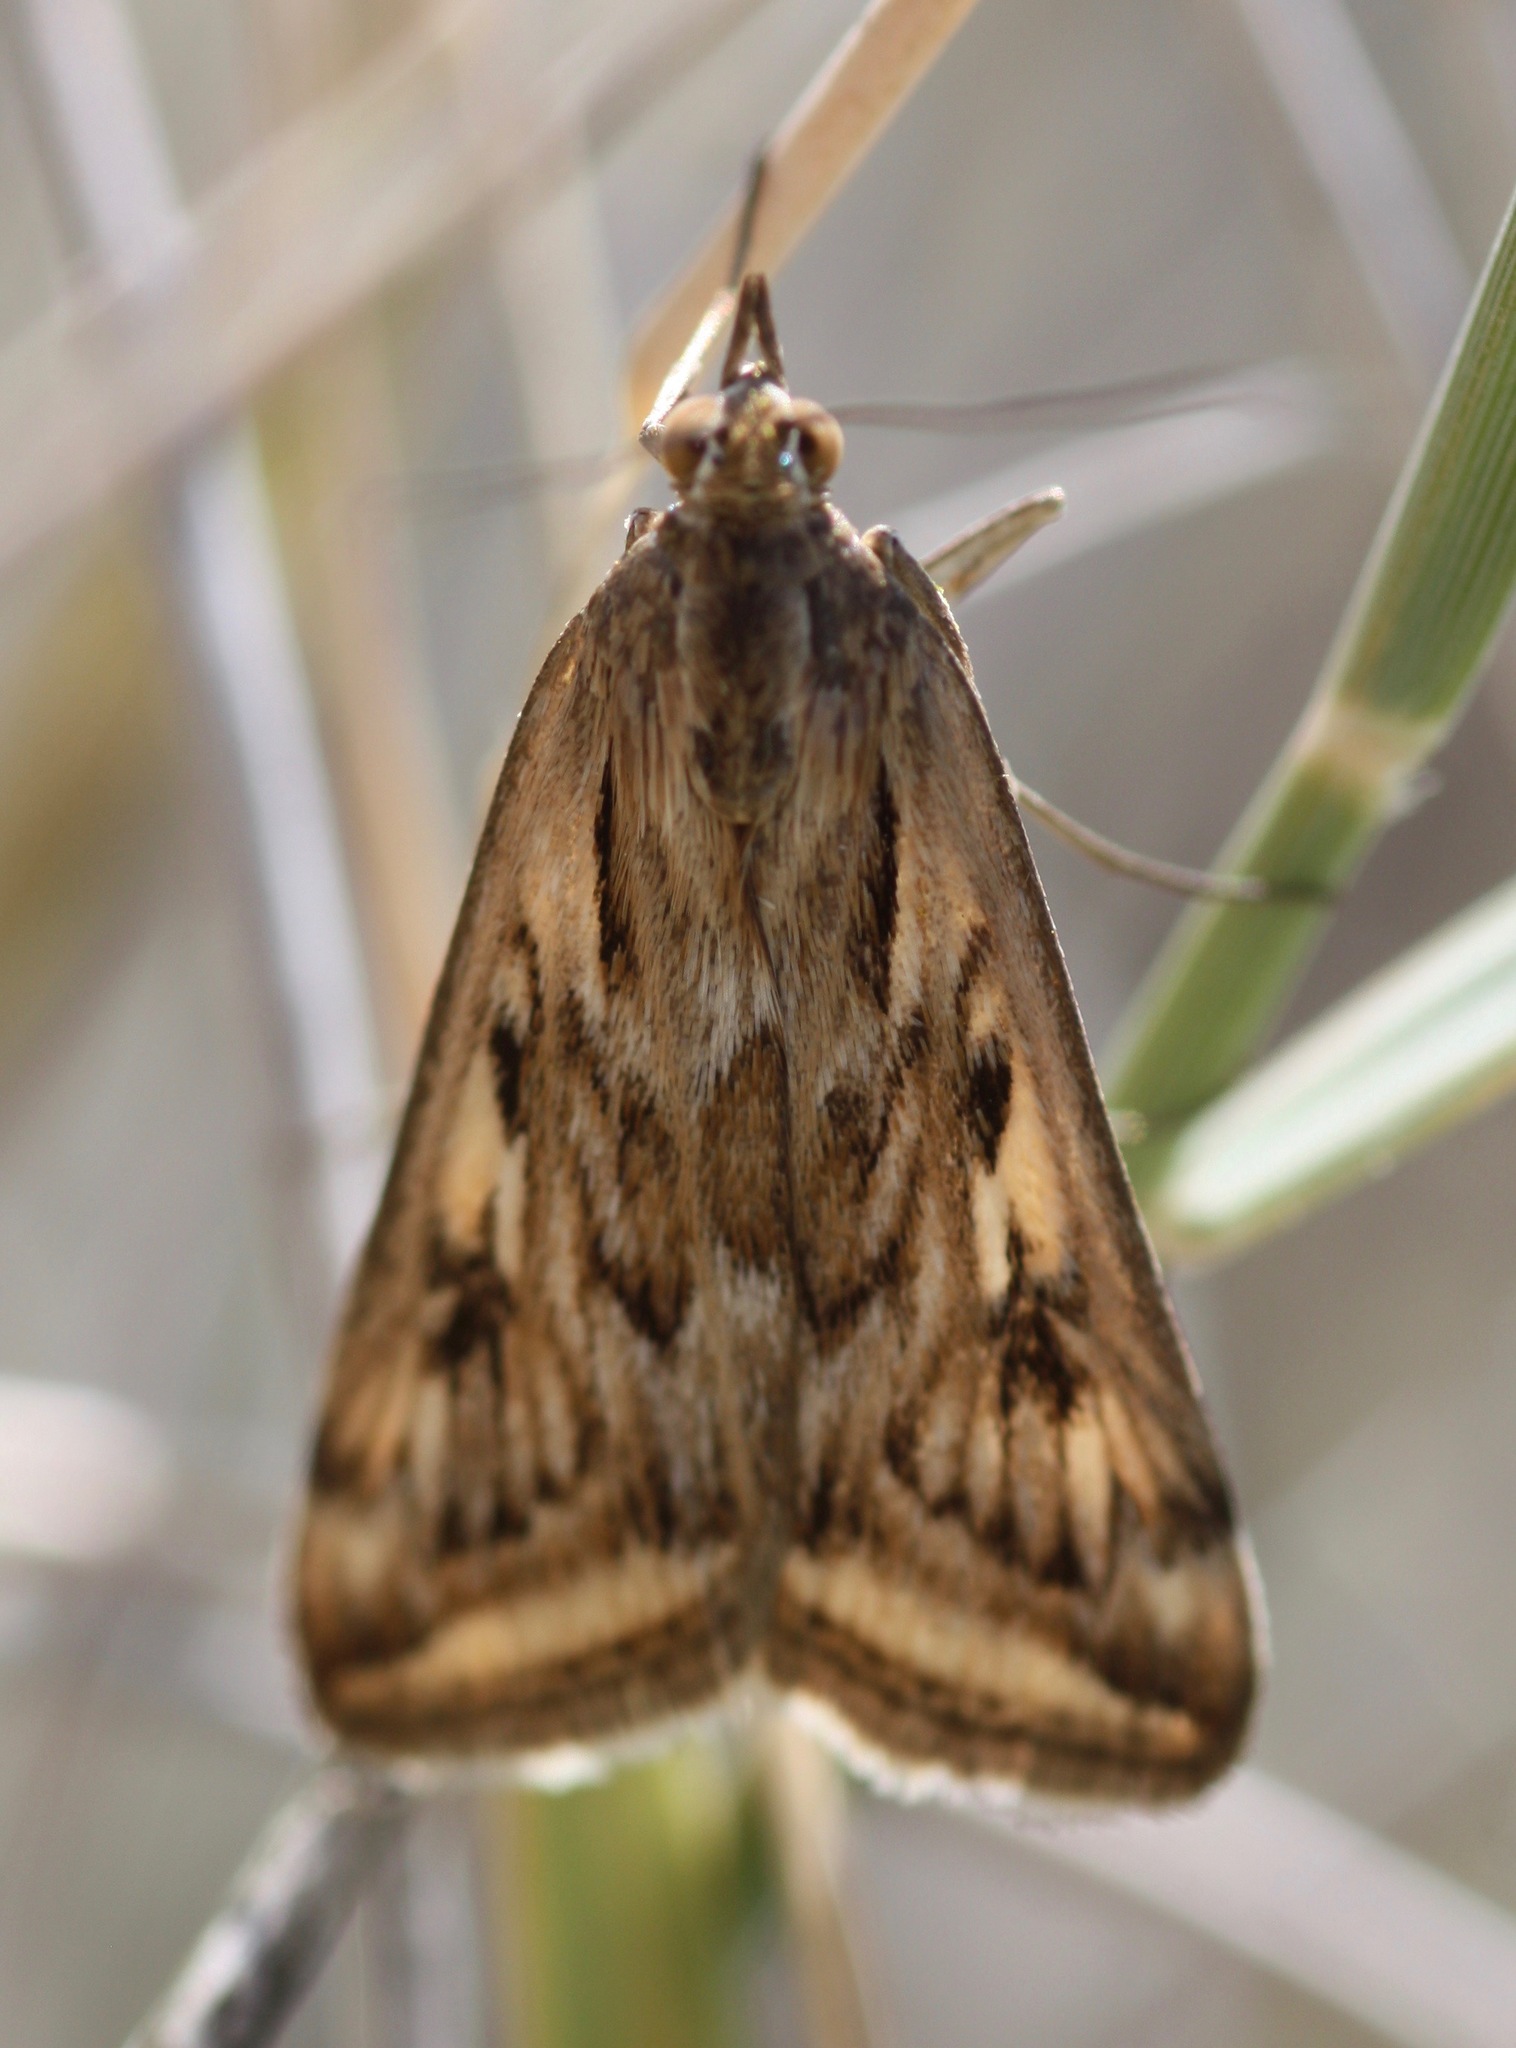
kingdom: Animalia
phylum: Arthropoda
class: Insecta
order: Lepidoptera
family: Crambidae
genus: Loxostege
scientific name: Loxostege cereralis
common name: Alfalfa webworm moth
